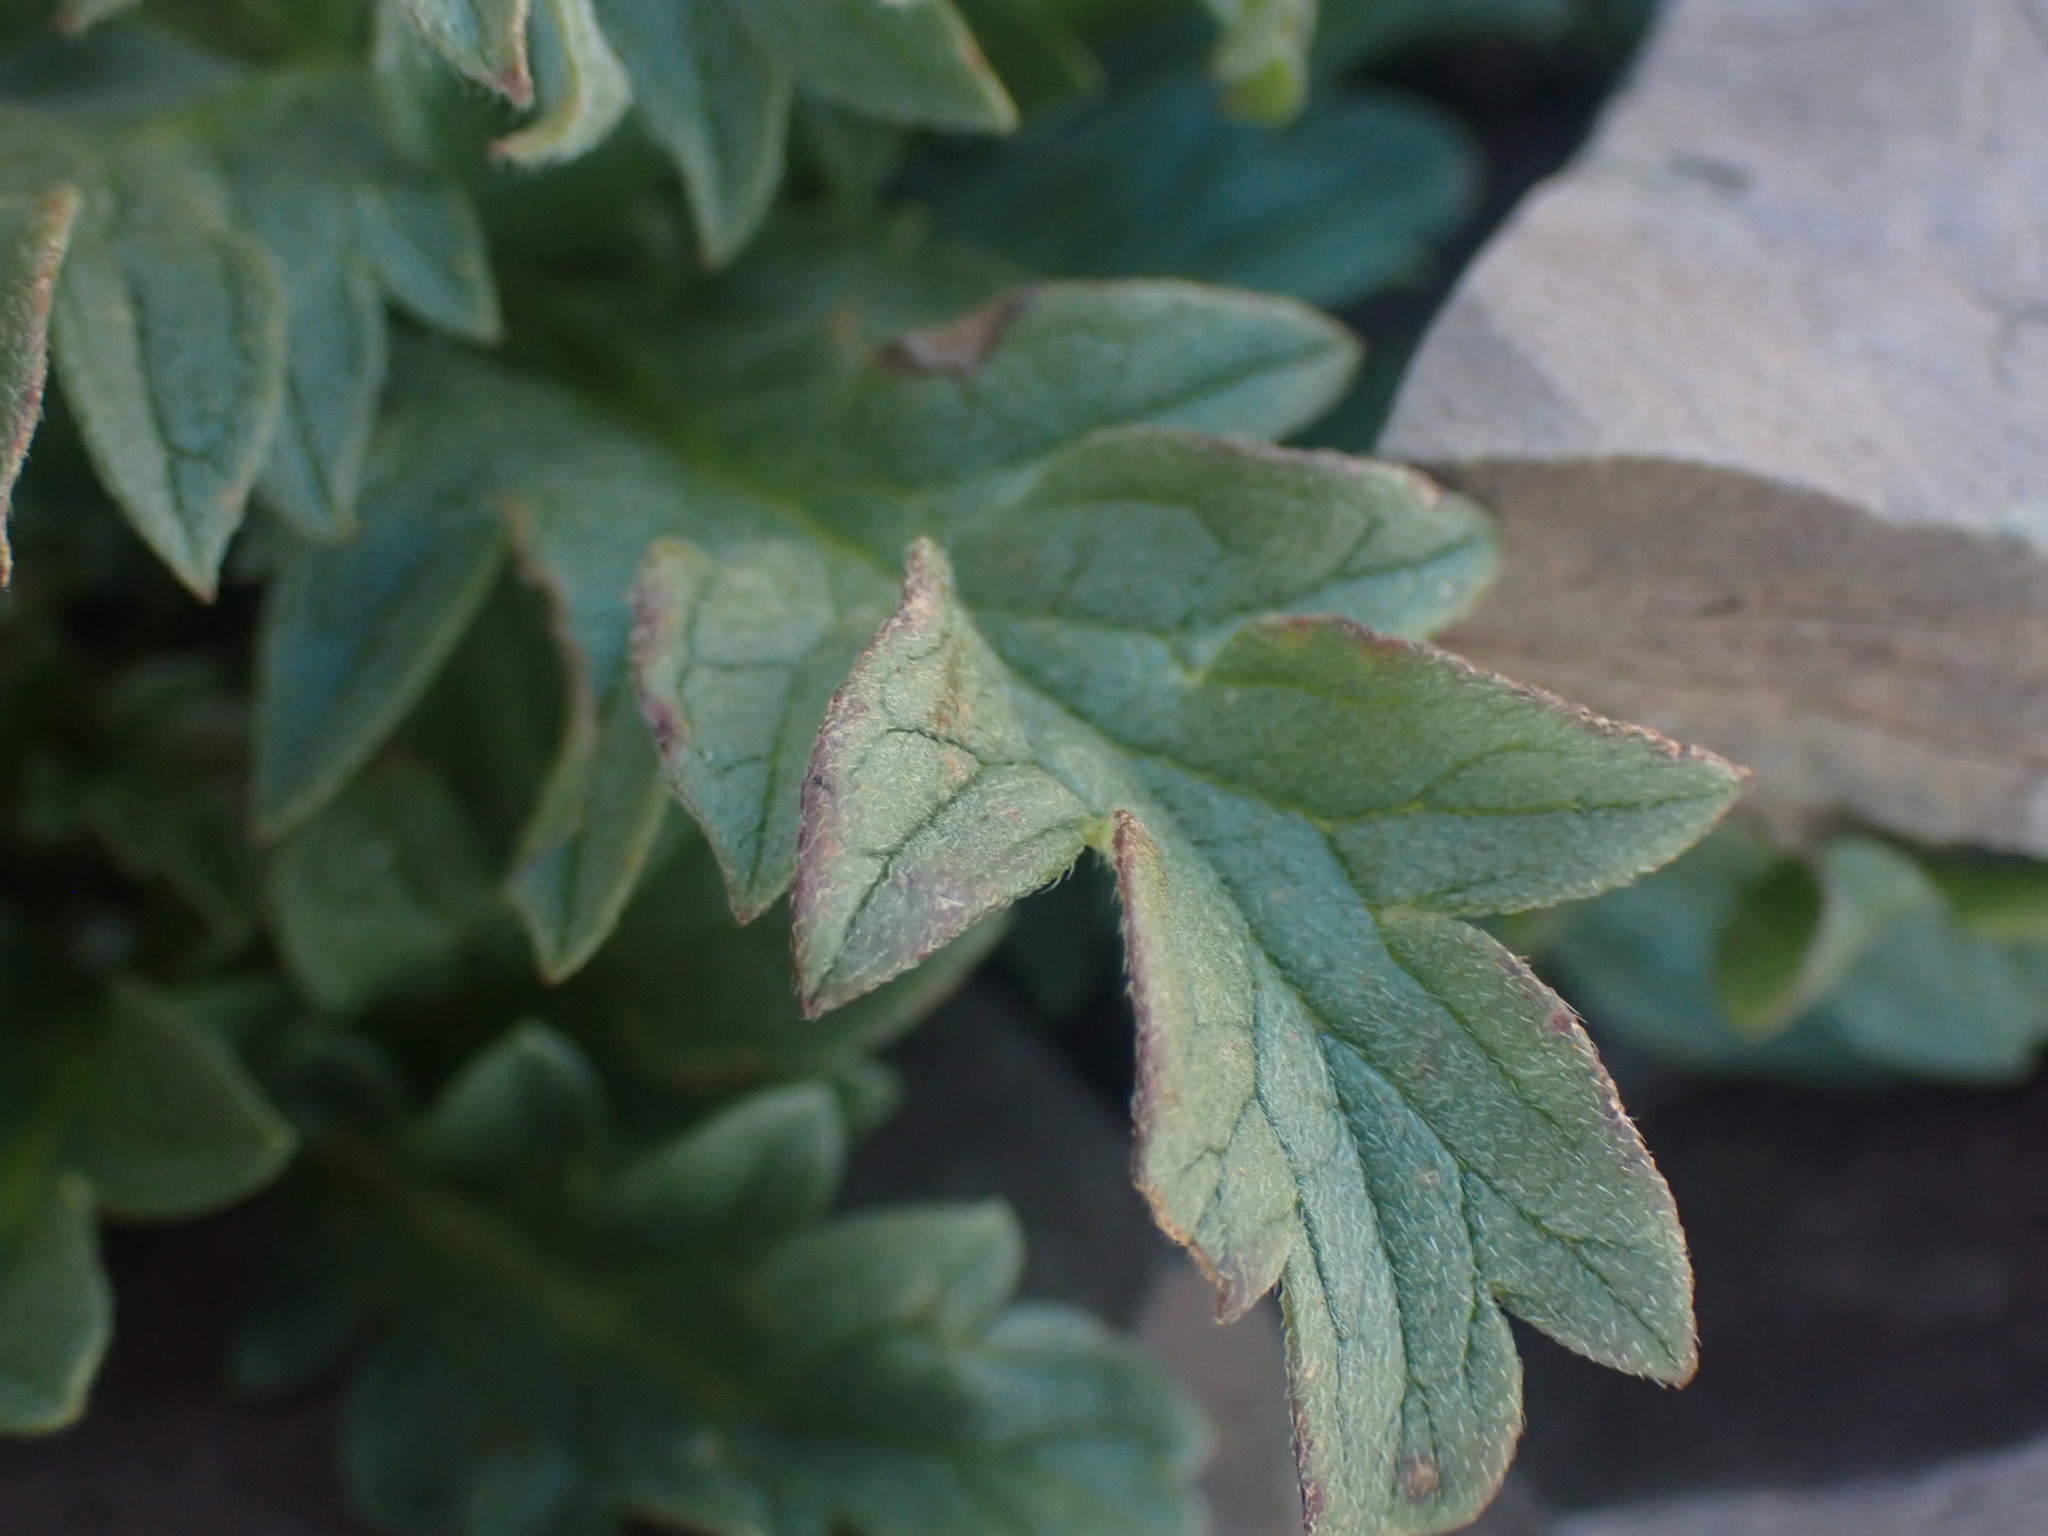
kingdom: Plantae
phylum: Tracheophyta
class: Magnoliopsida
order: Boraginales
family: Hydrophyllaceae
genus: Phacelia
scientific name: Phacelia lyallii
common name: Lyall's phacelia
